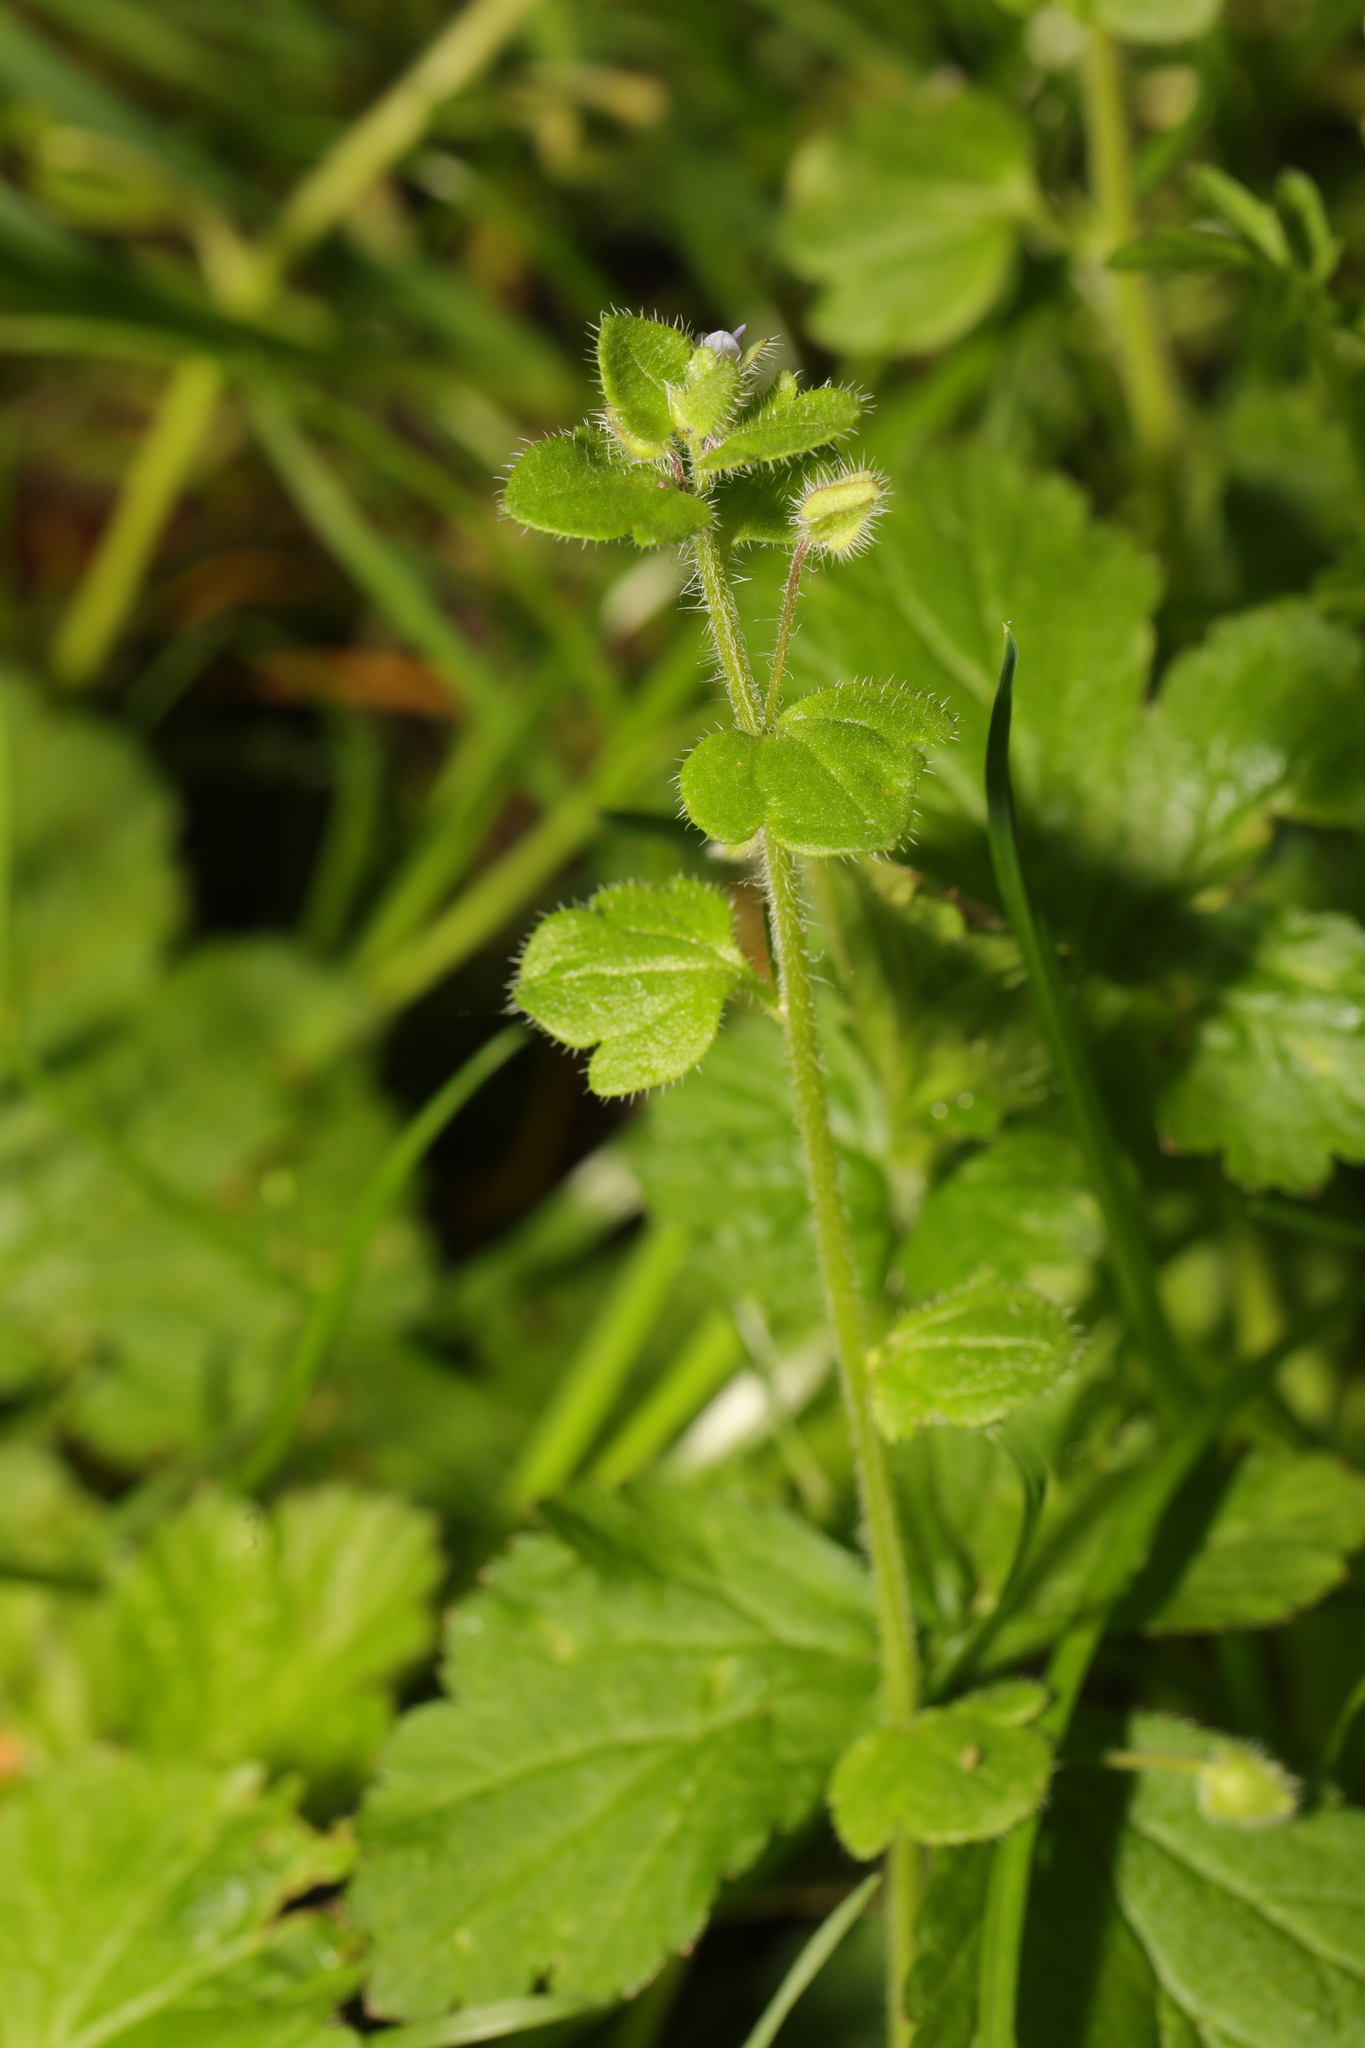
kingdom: Plantae
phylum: Tracheophyta
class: Magnoliopsida
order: Lamiales
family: Plantaginaceae
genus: Veronica
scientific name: Veronica sublobata
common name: False ivy-leaved speedwell
